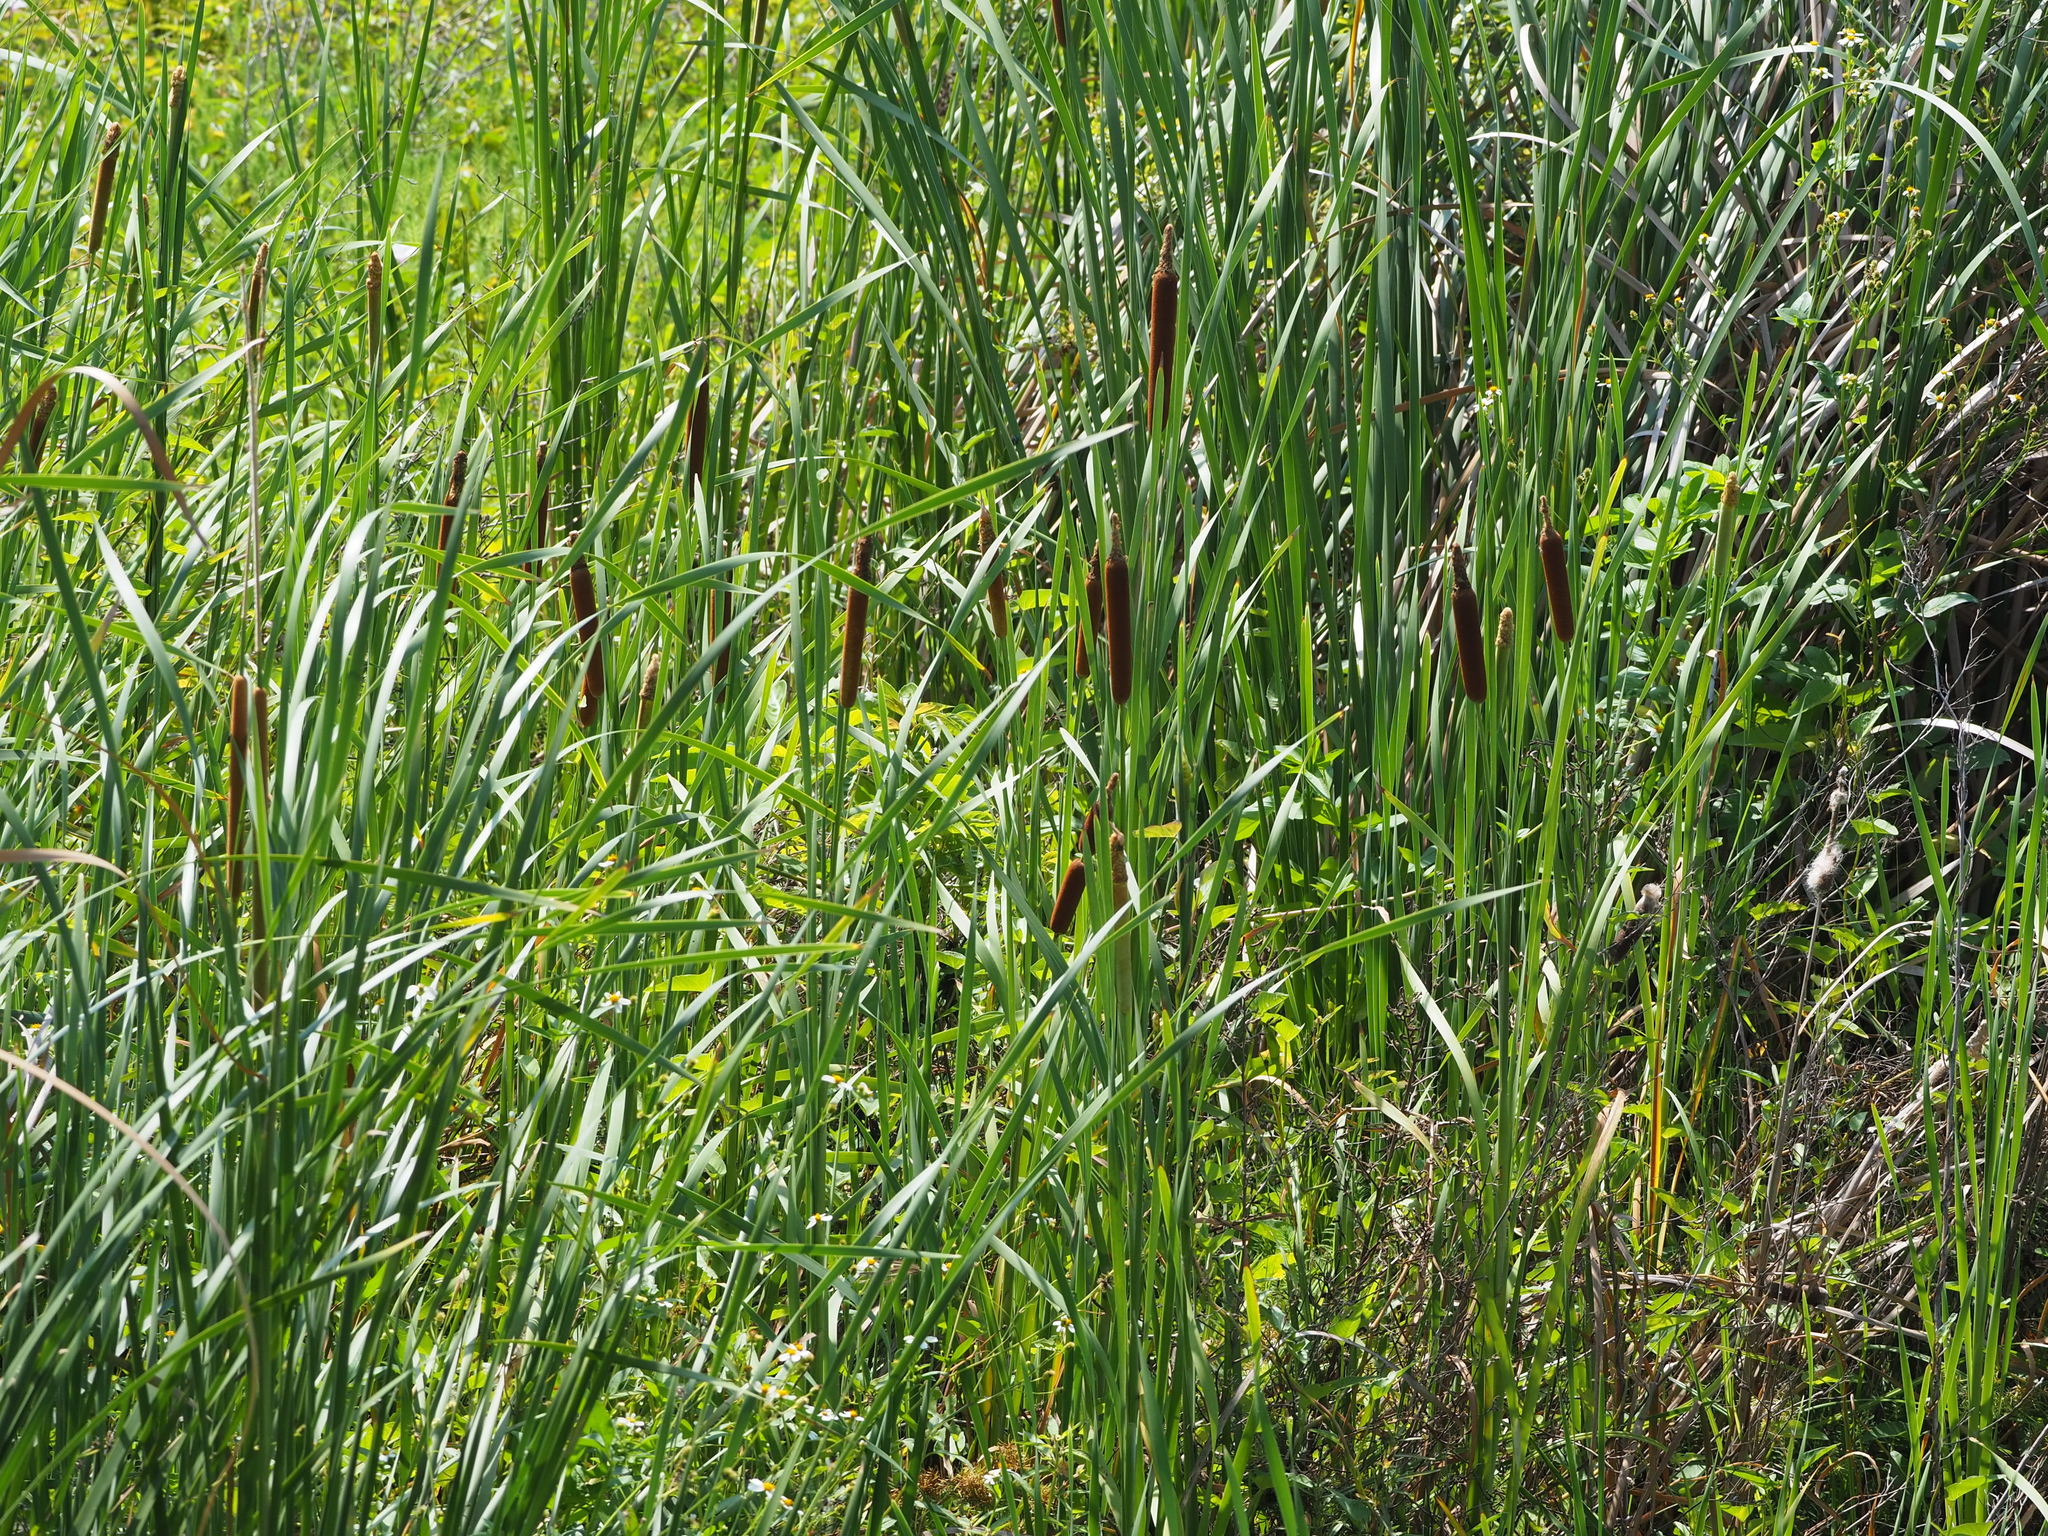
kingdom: Plantae
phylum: Tracheophyta
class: Liliopsida
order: Poales
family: Typhaceae
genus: Typha
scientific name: Typha orientalis
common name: Bullrush
